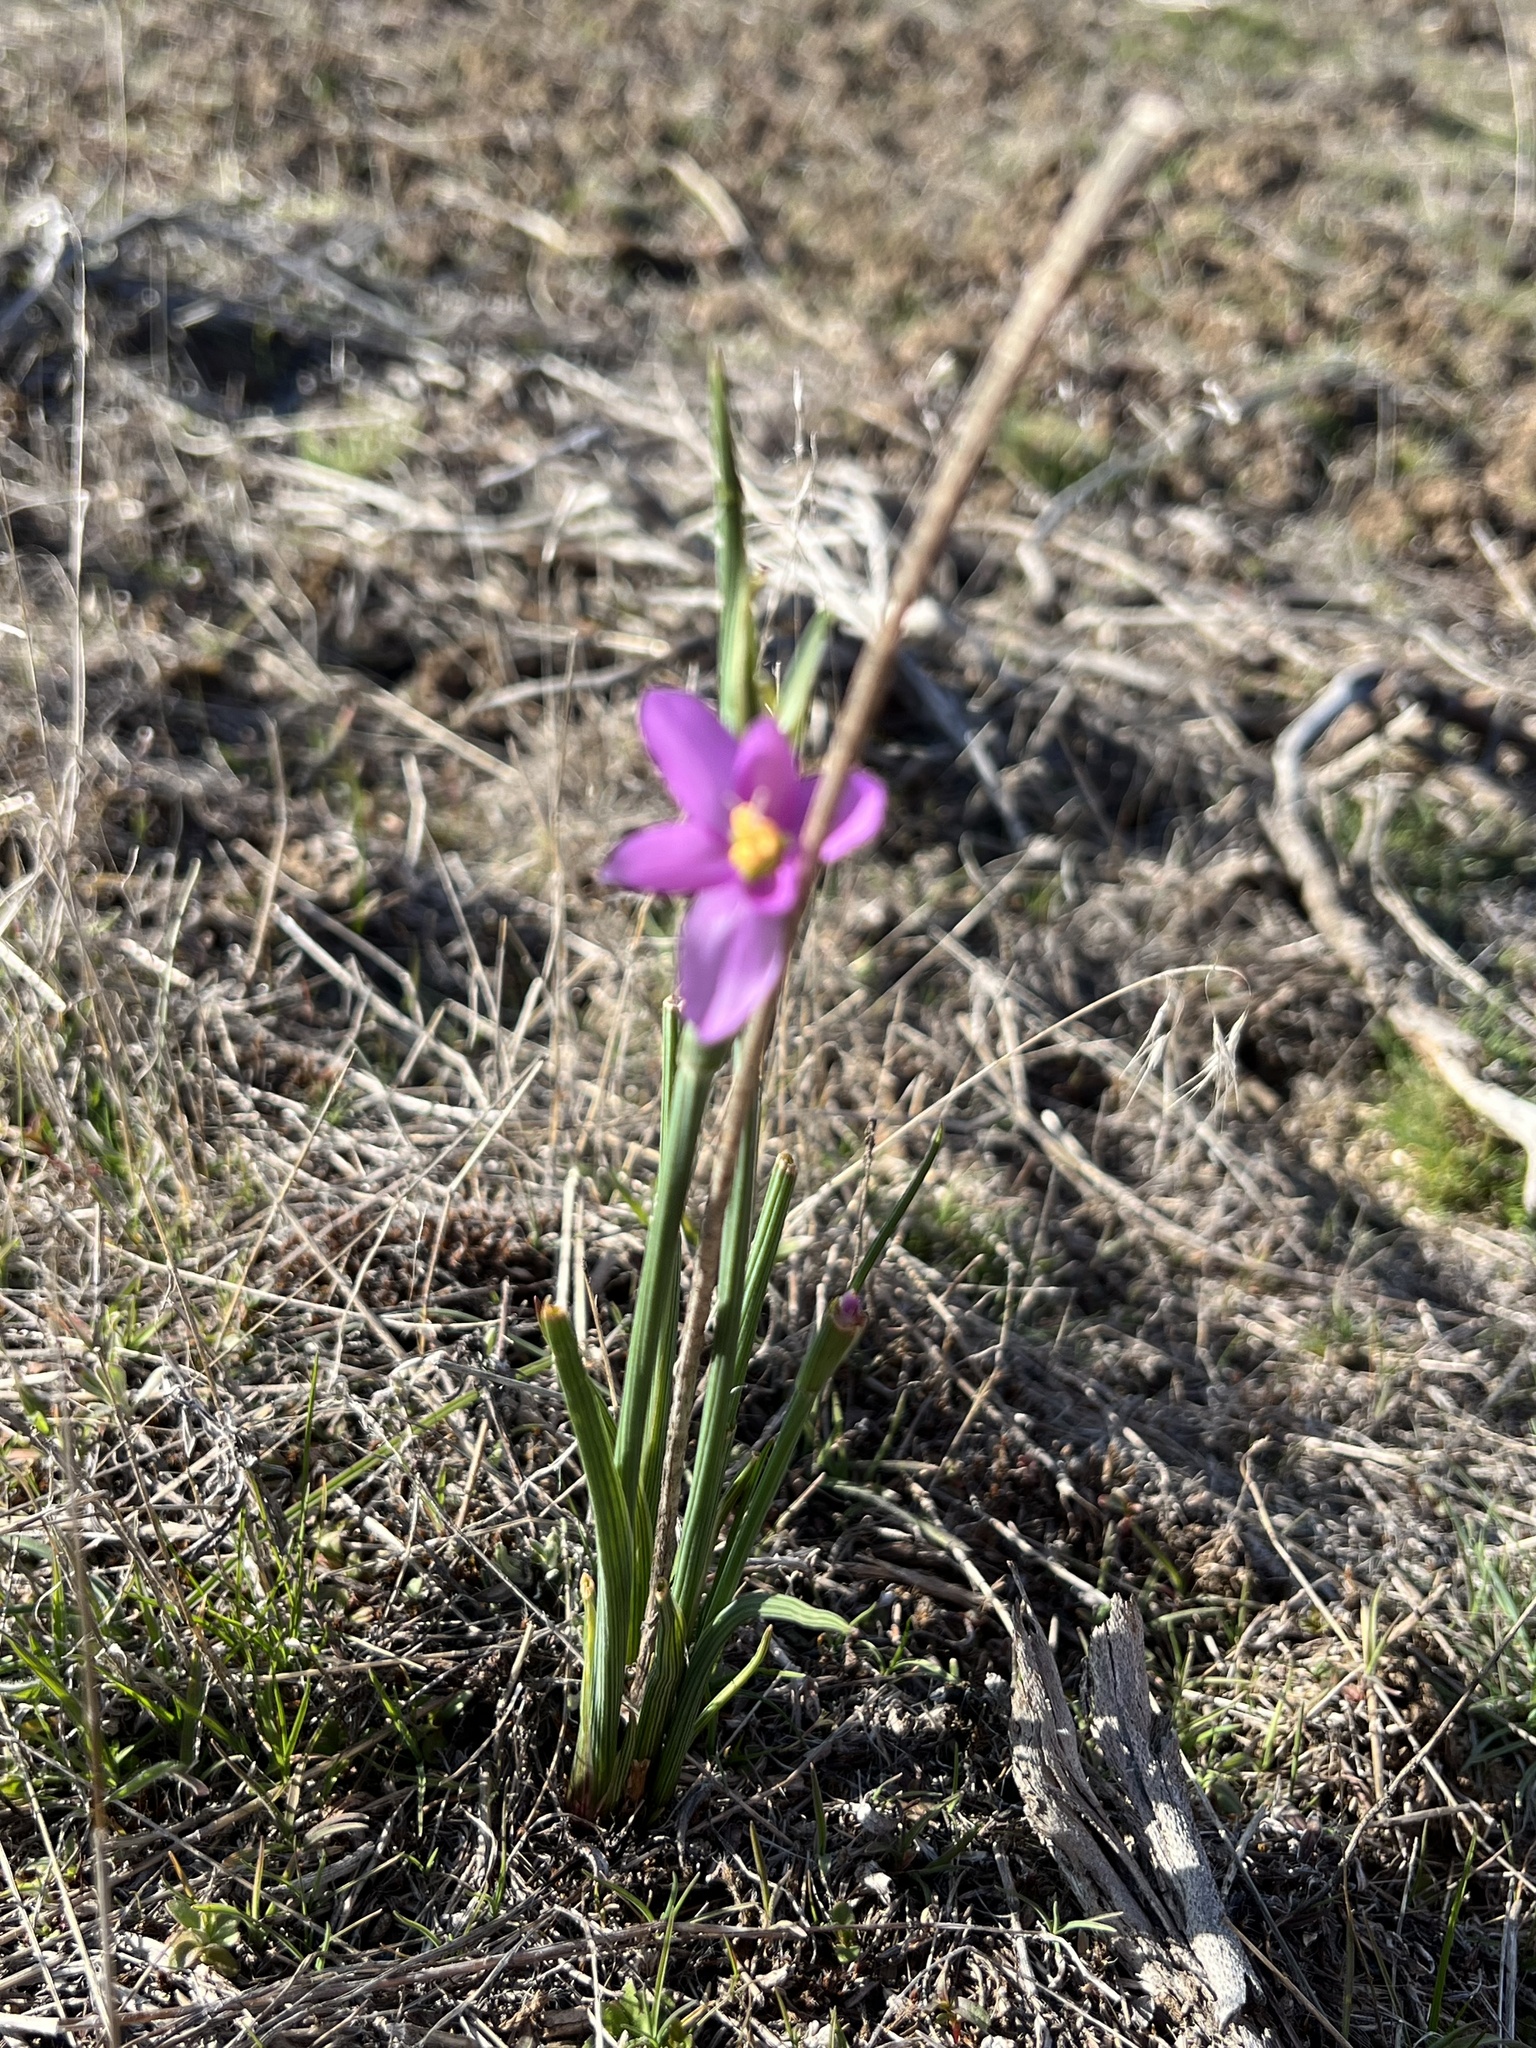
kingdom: Plantae
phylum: Tracheophyta
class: Liliopsida
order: Asparagales
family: Iridaceae
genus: Olsynium
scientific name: Olsynium douglasii
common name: Douglas' grasswidow
